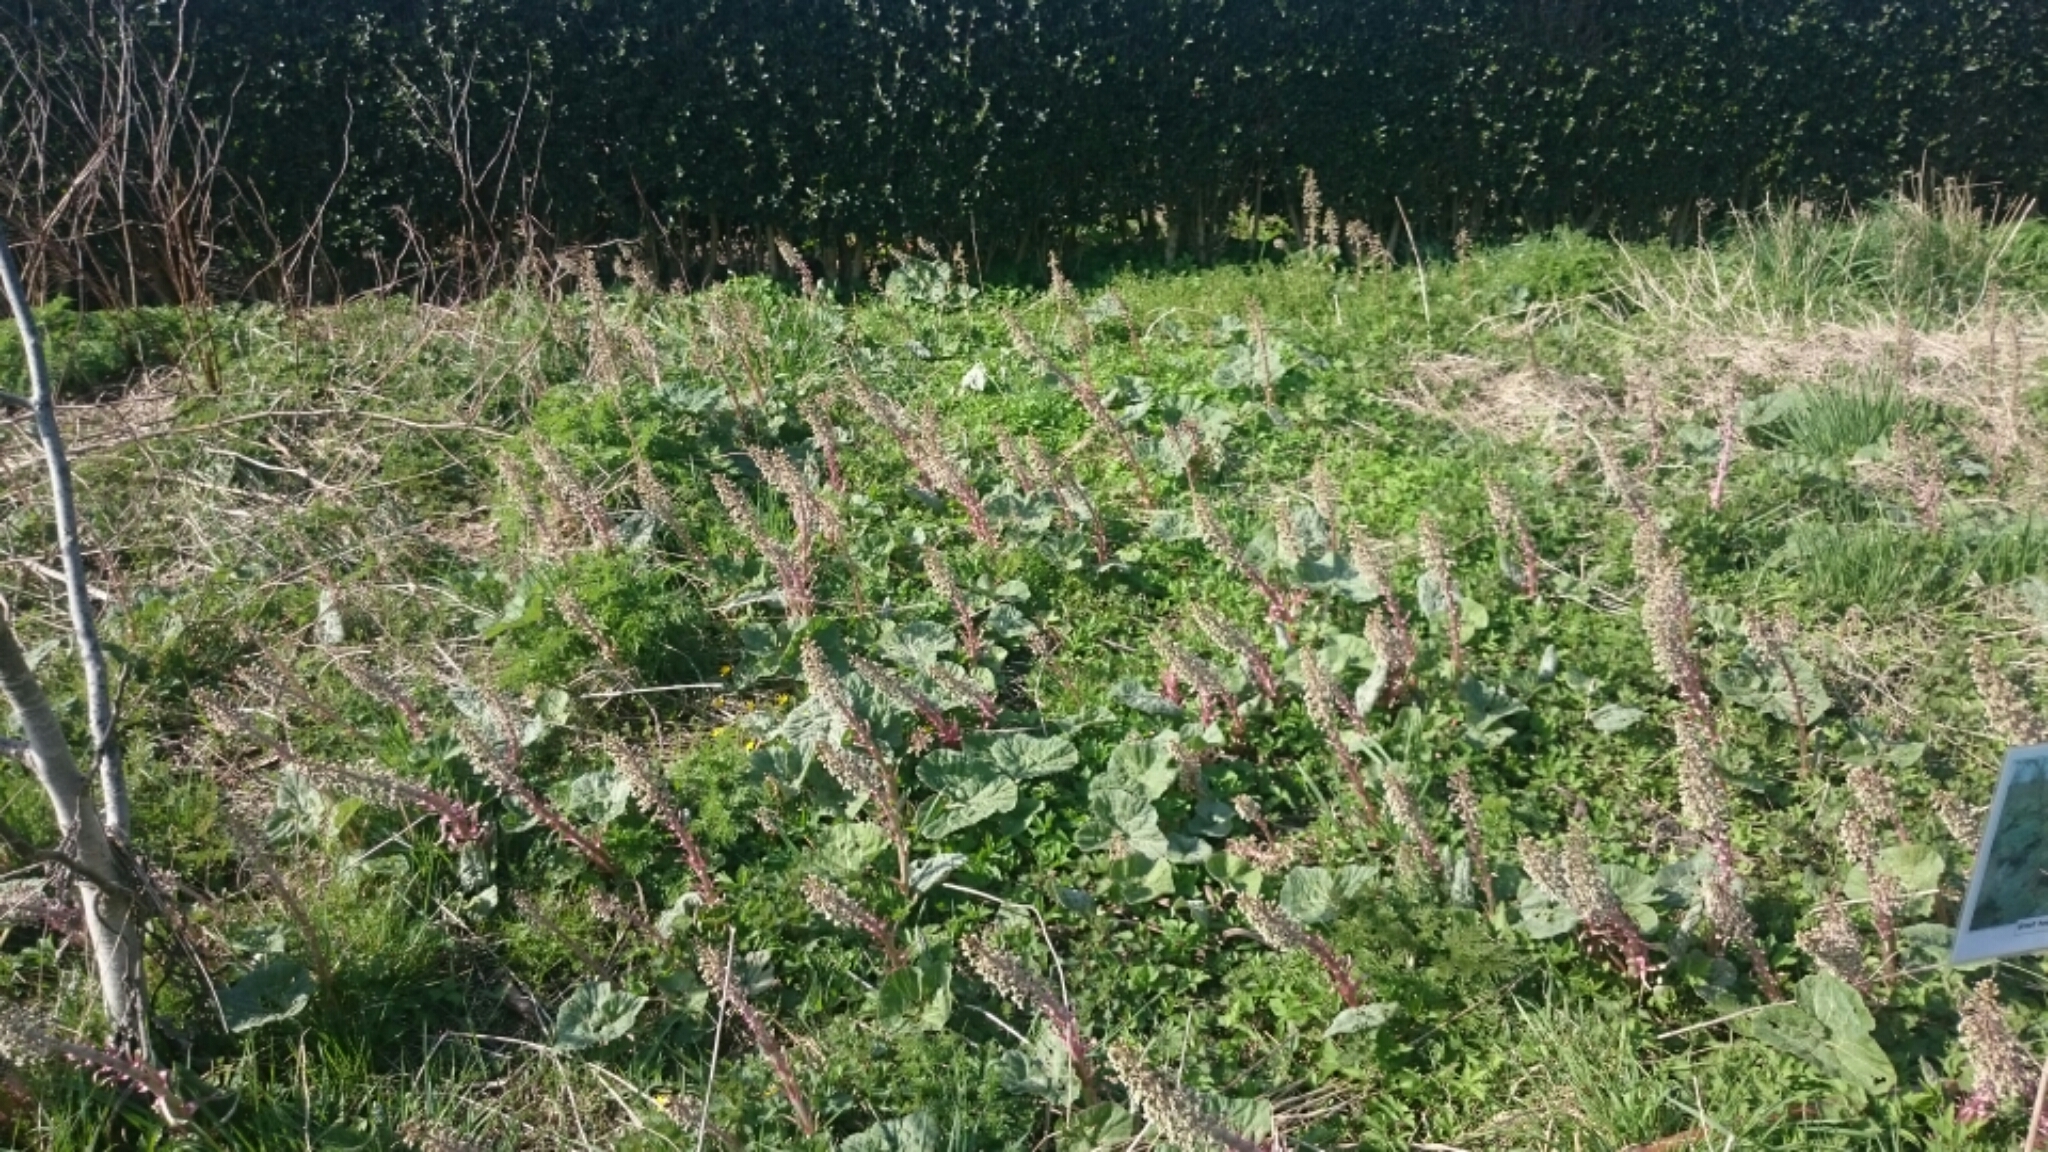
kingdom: Plantae
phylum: Tracheophyta
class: Magnoliopsida
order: Asterales
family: Asteraceae
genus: Petasites
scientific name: Petasites hybridus
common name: Butterbur
